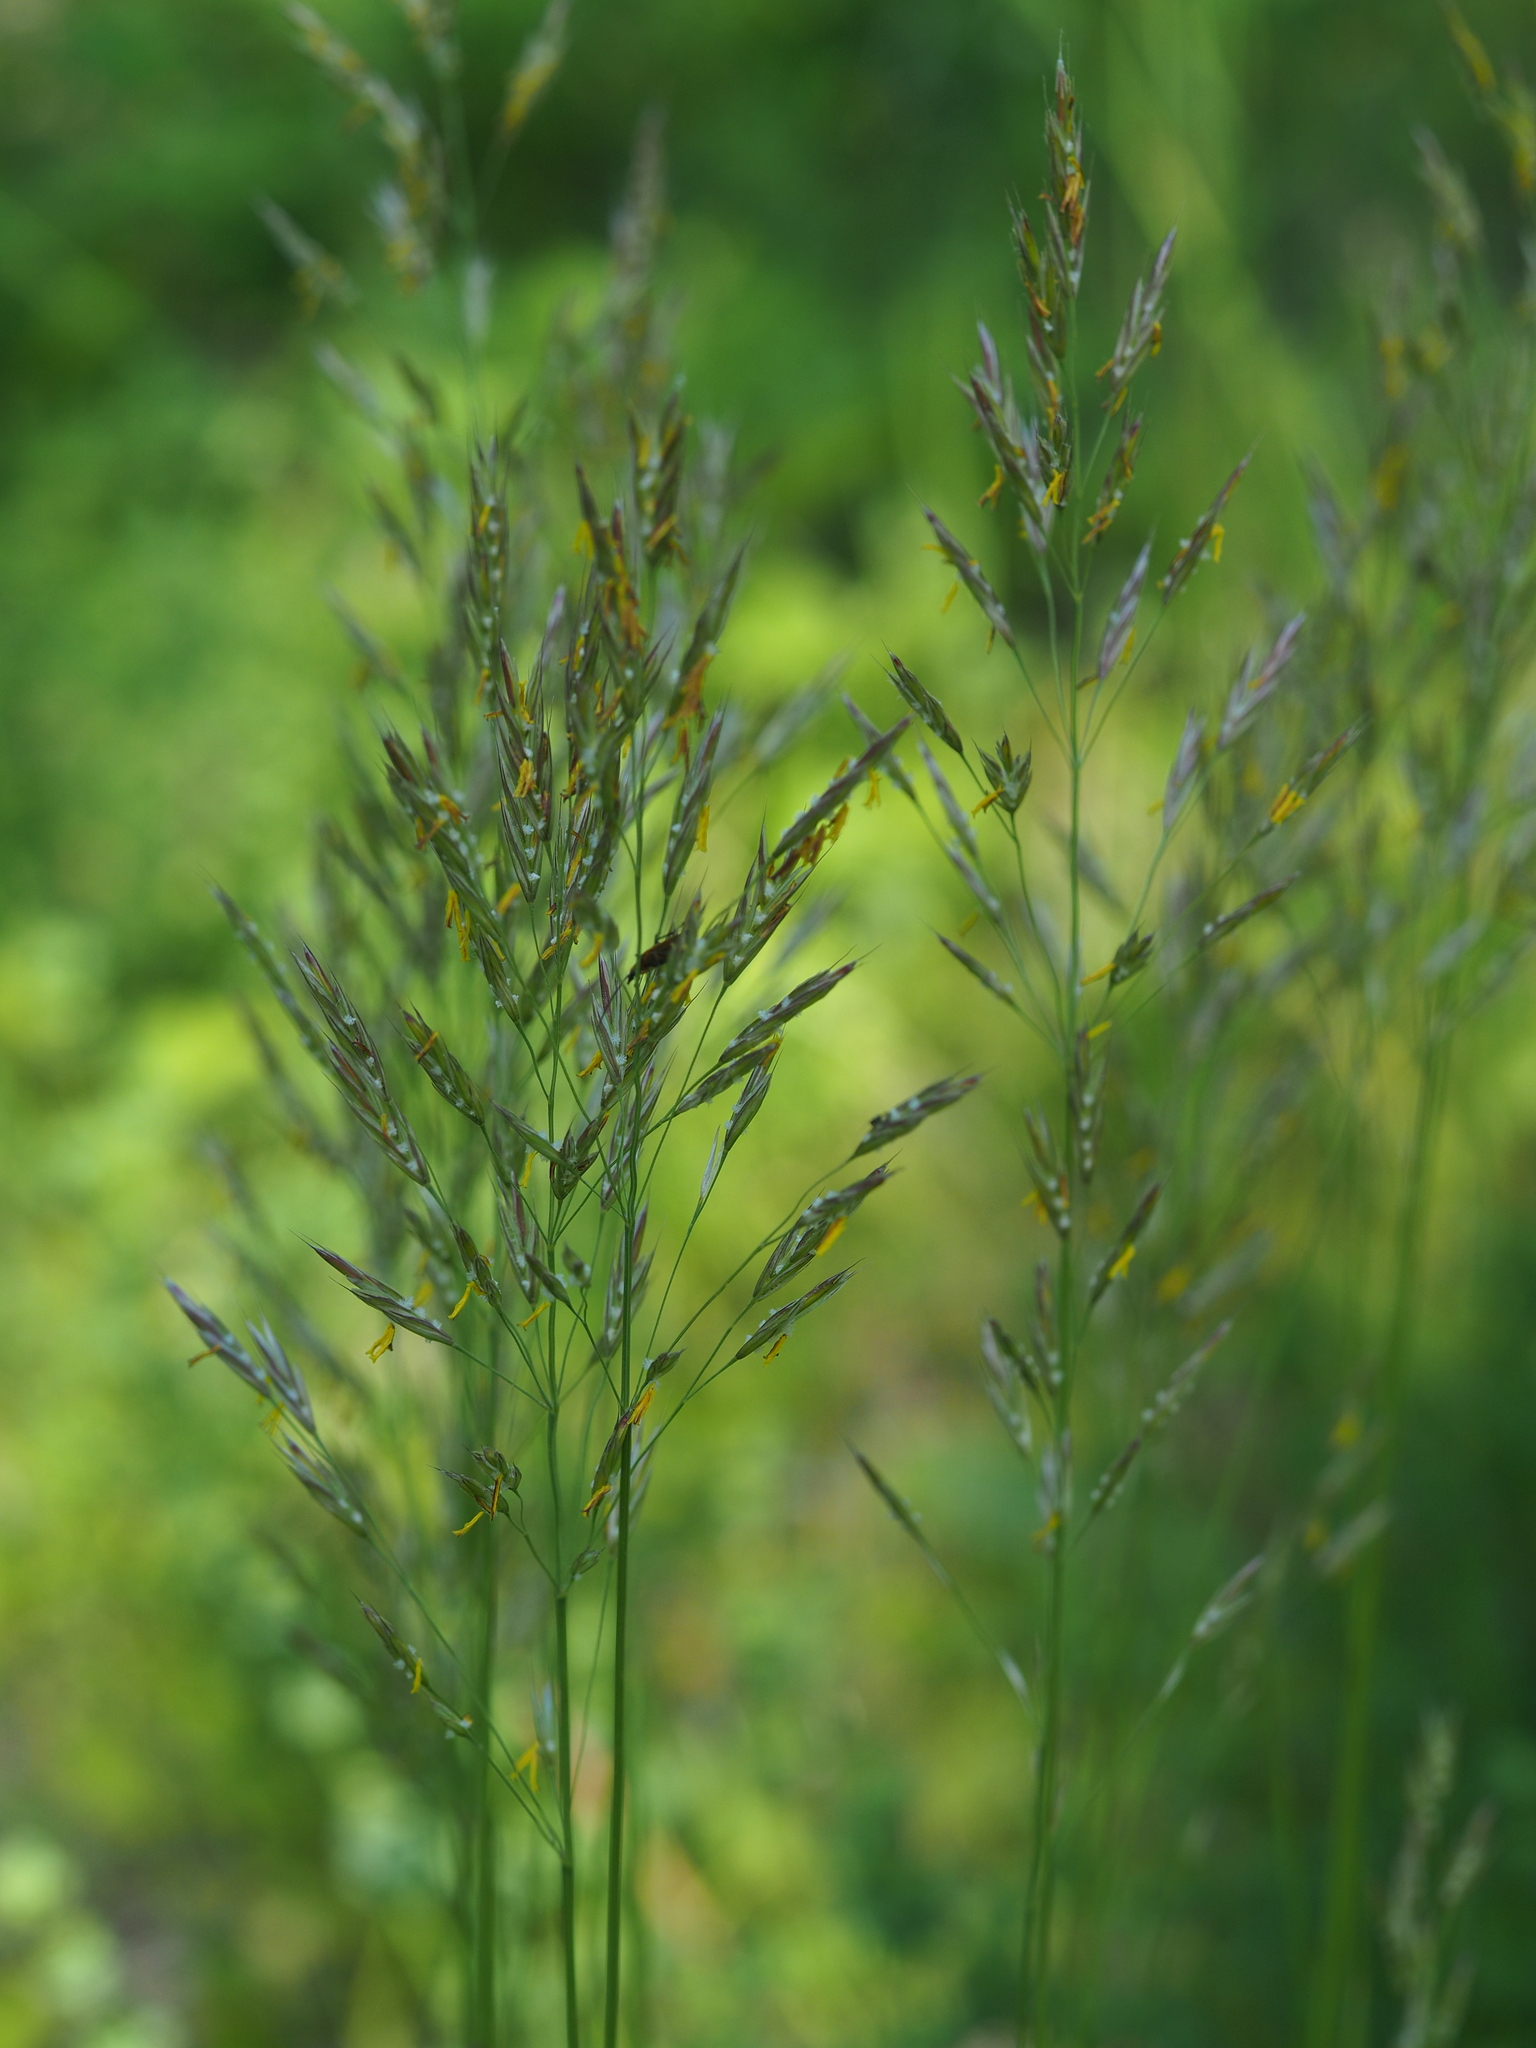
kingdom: Plantae
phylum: Tracheophyta
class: Liliopsida
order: Poales
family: Poaceae
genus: Bromus
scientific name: Bromus erectus
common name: Erect brome
